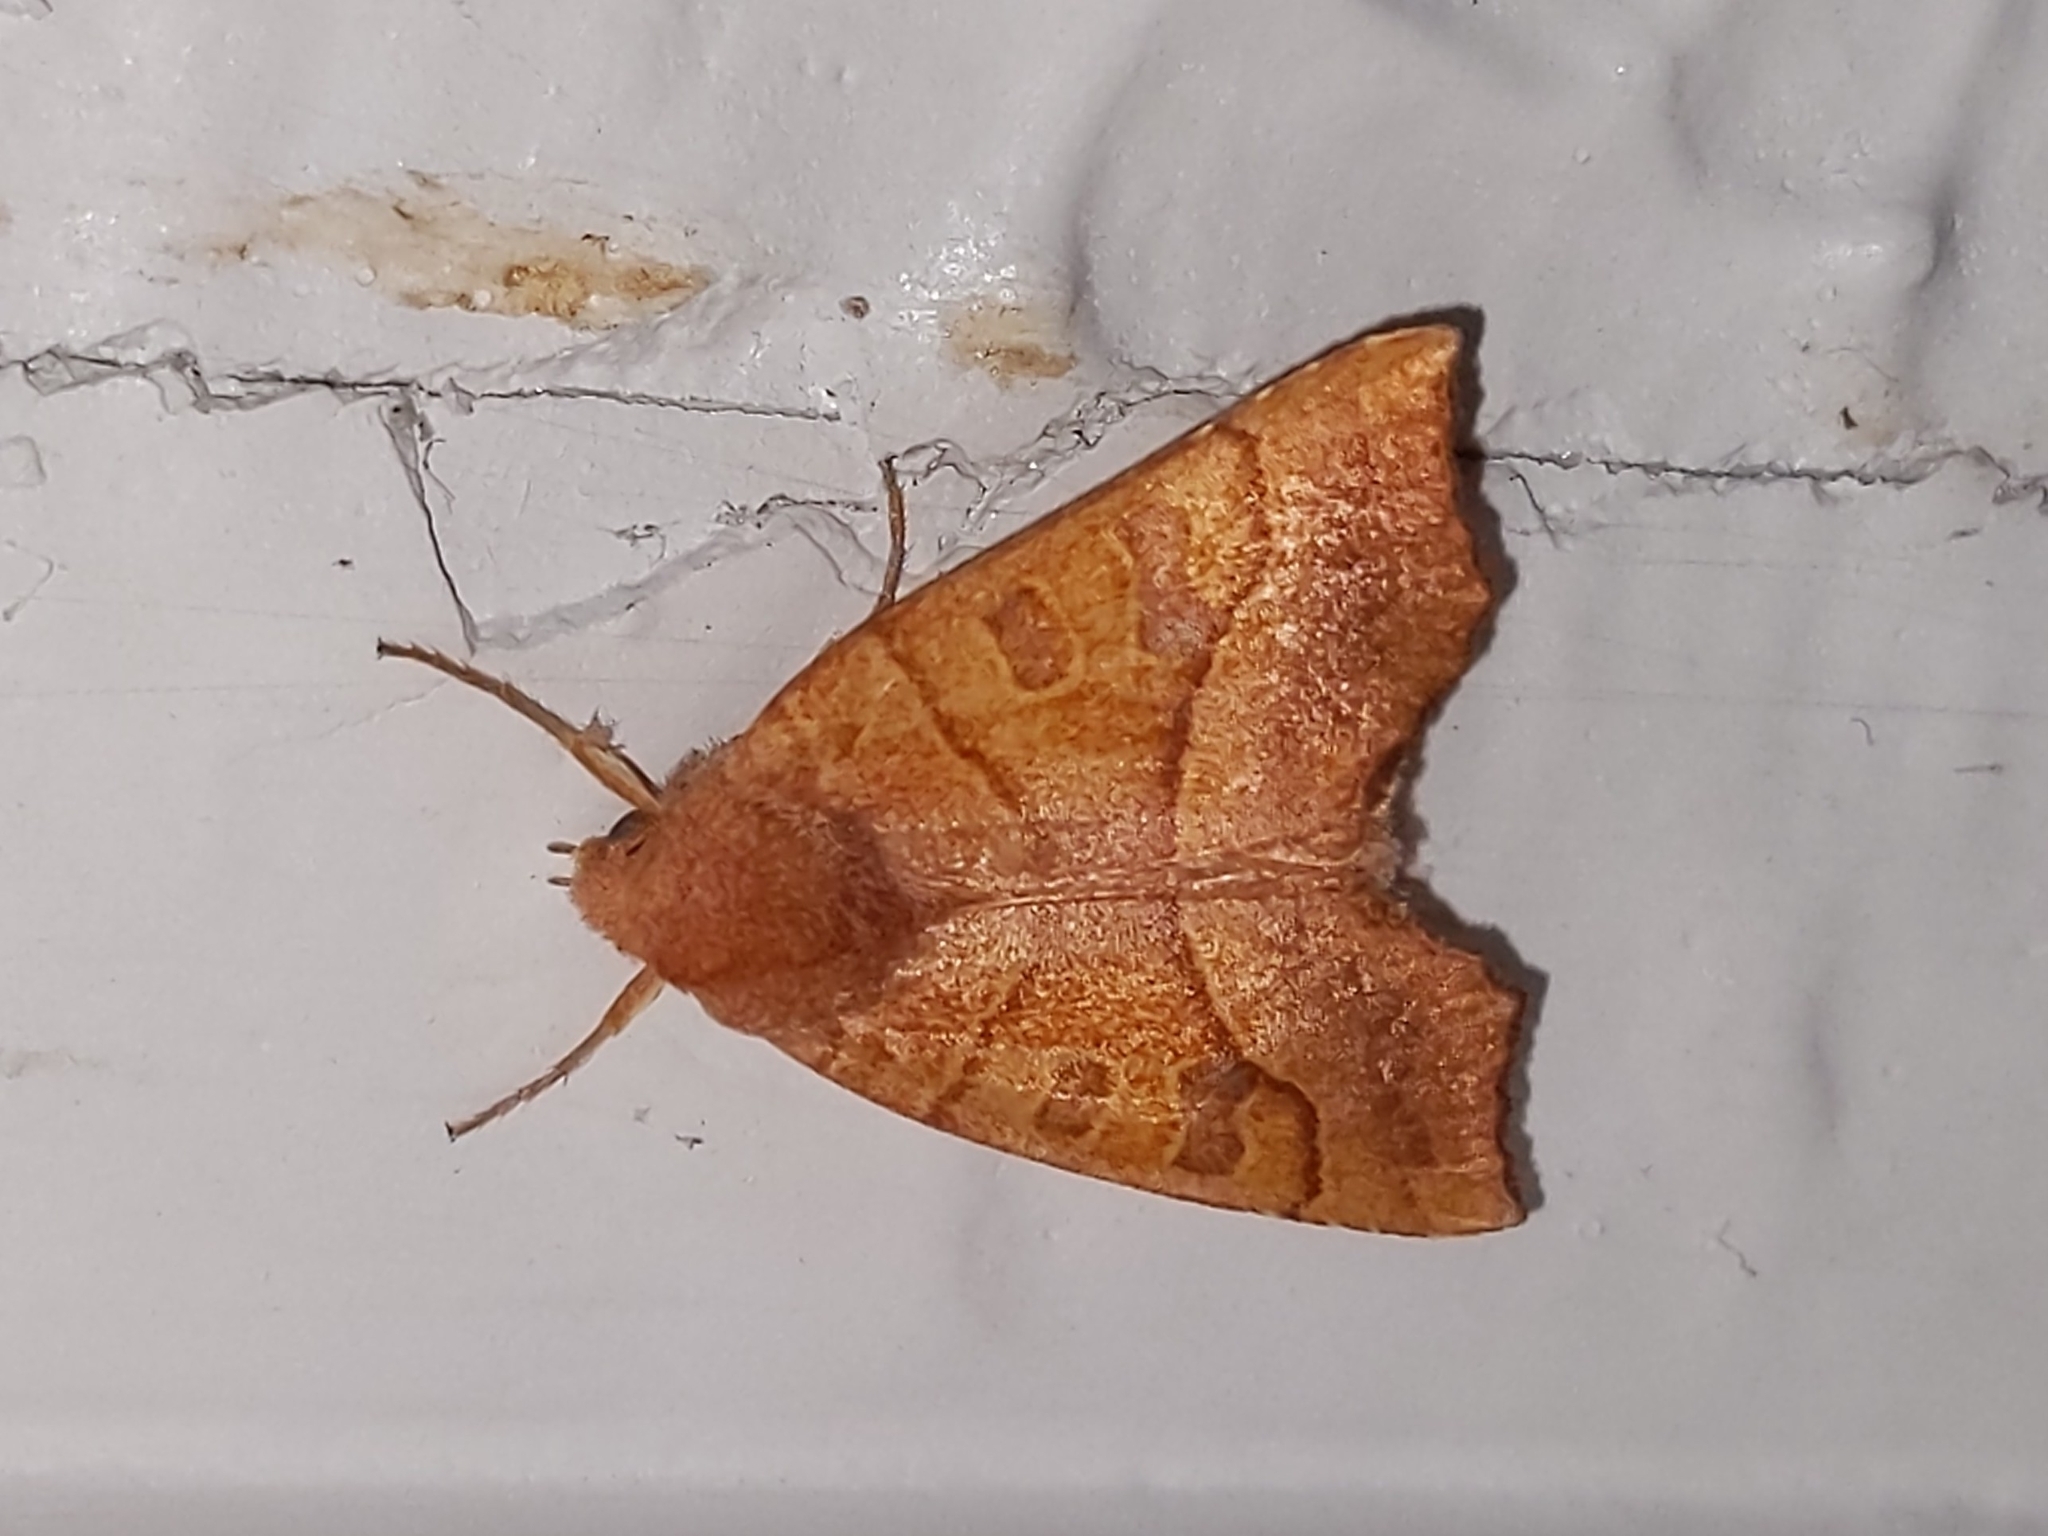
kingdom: Animalia
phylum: Arthropoda
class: Insecta
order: Lepidoptera
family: Noctuidae
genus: Eucirroedia
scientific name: Eucirroedia pampina
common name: Scalloped sallow
